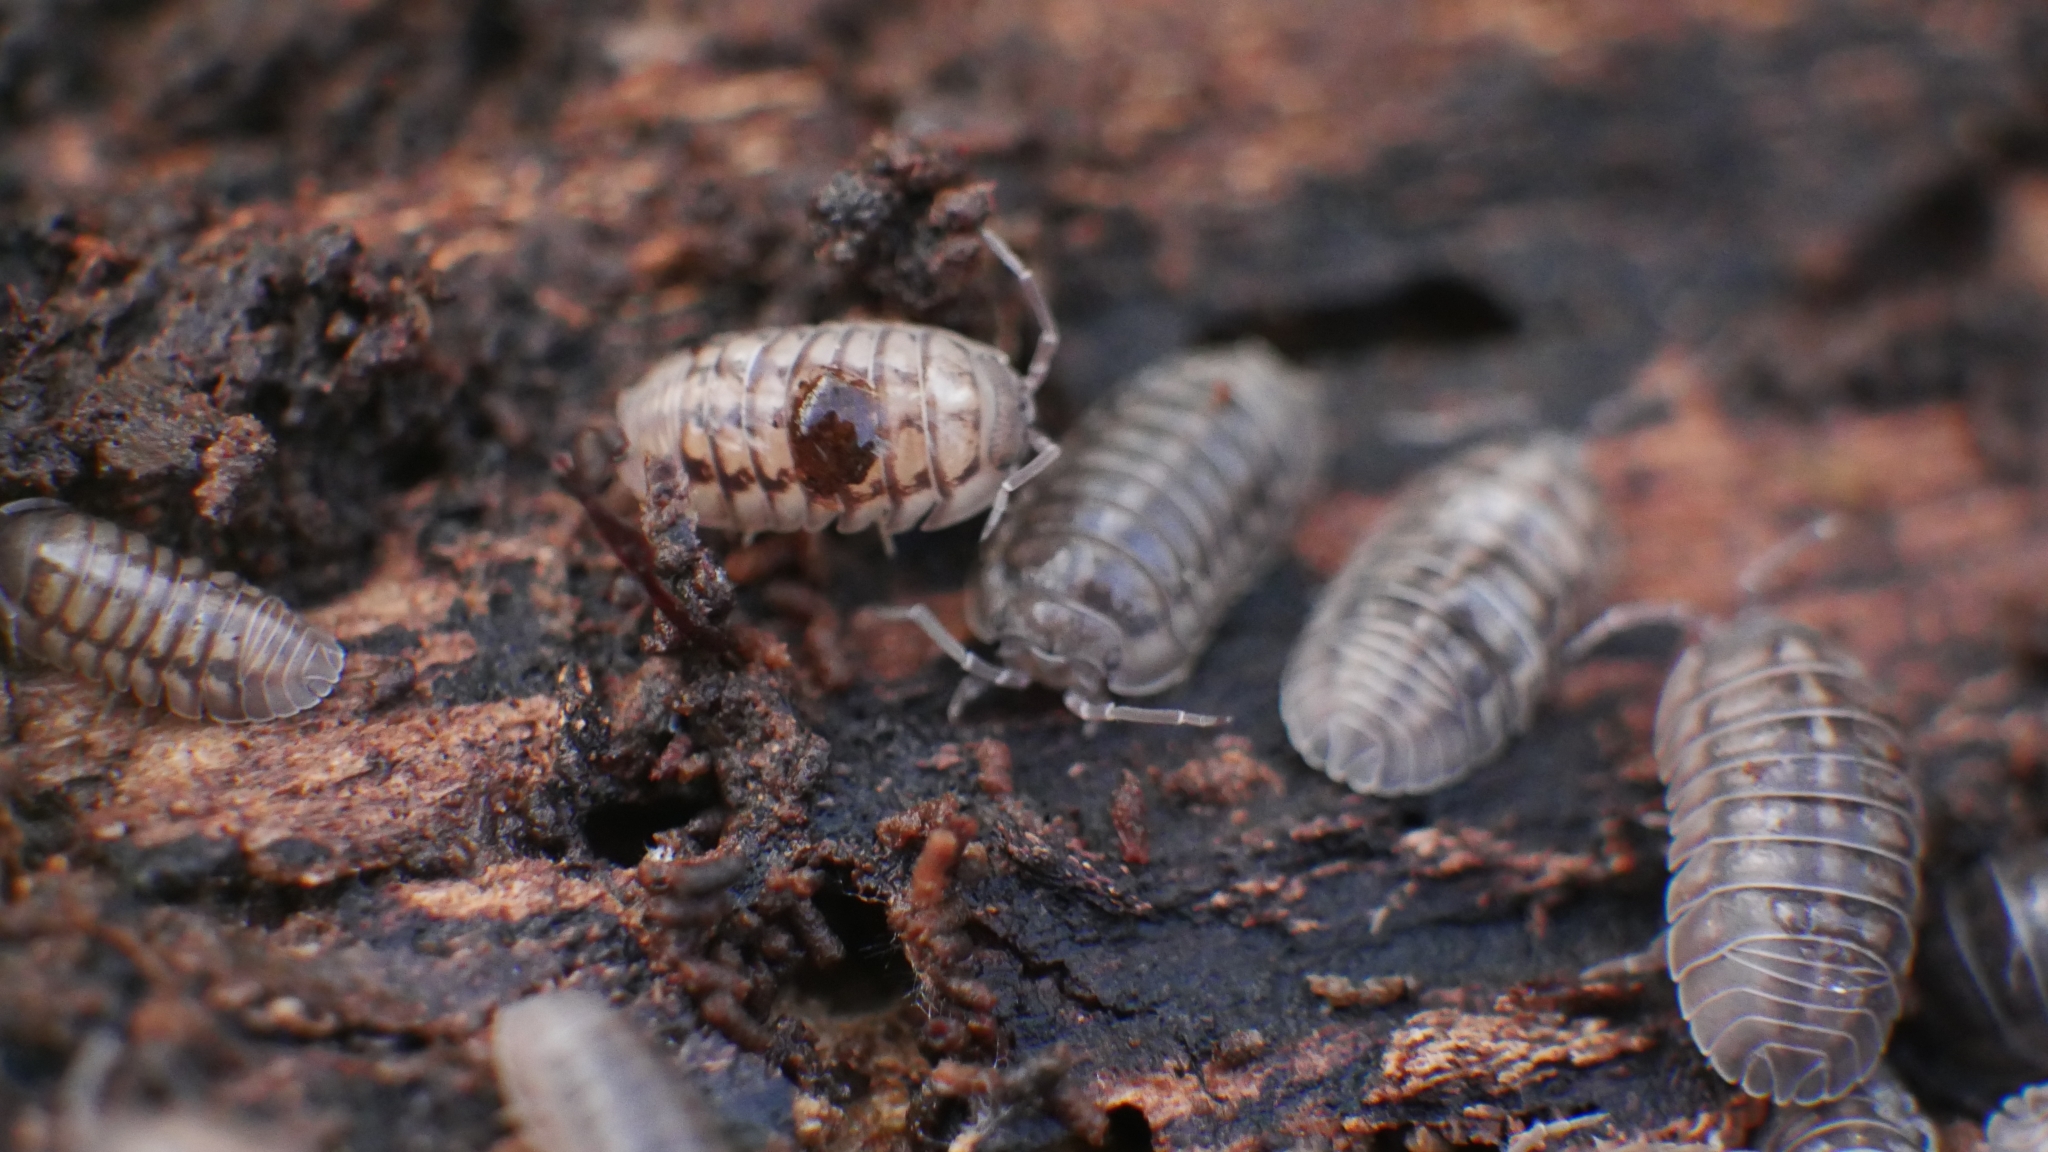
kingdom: Animalia
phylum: Arthropoda
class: Malacostraca
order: Isopoda
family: Armadillidiidae
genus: Armadillidium
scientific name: Armadillidium nasatum
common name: Isopod
